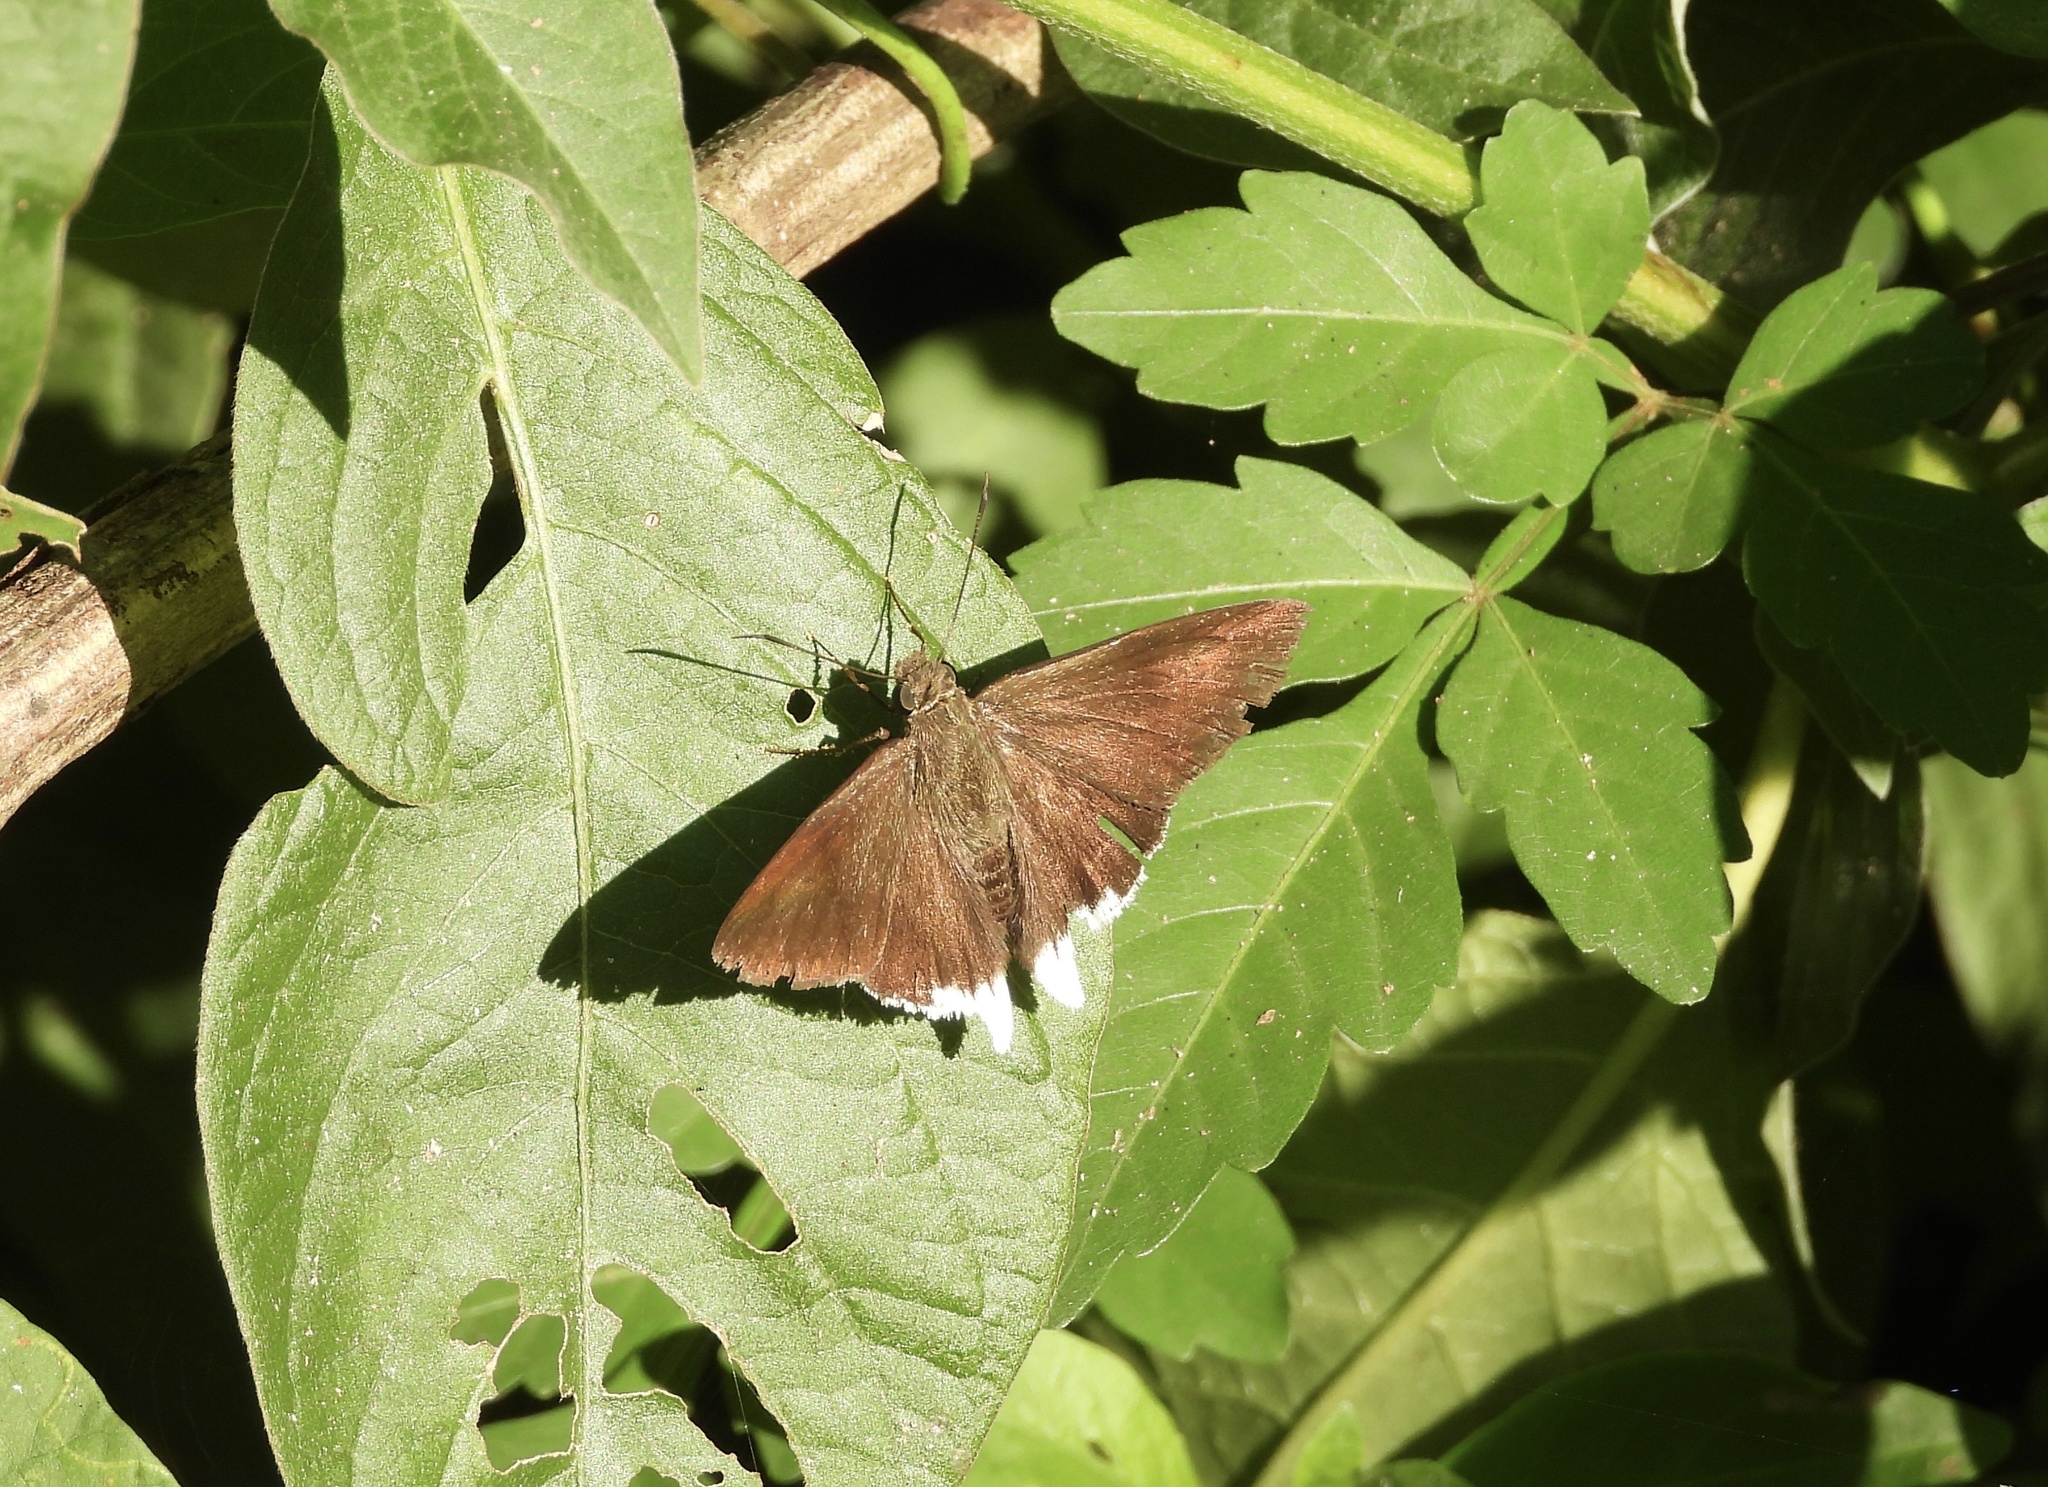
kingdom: Animalia
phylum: Arthropoda
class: Insecta
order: Lepidoptera
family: Hesperiidae
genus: Achalarus
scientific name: Achalarus
